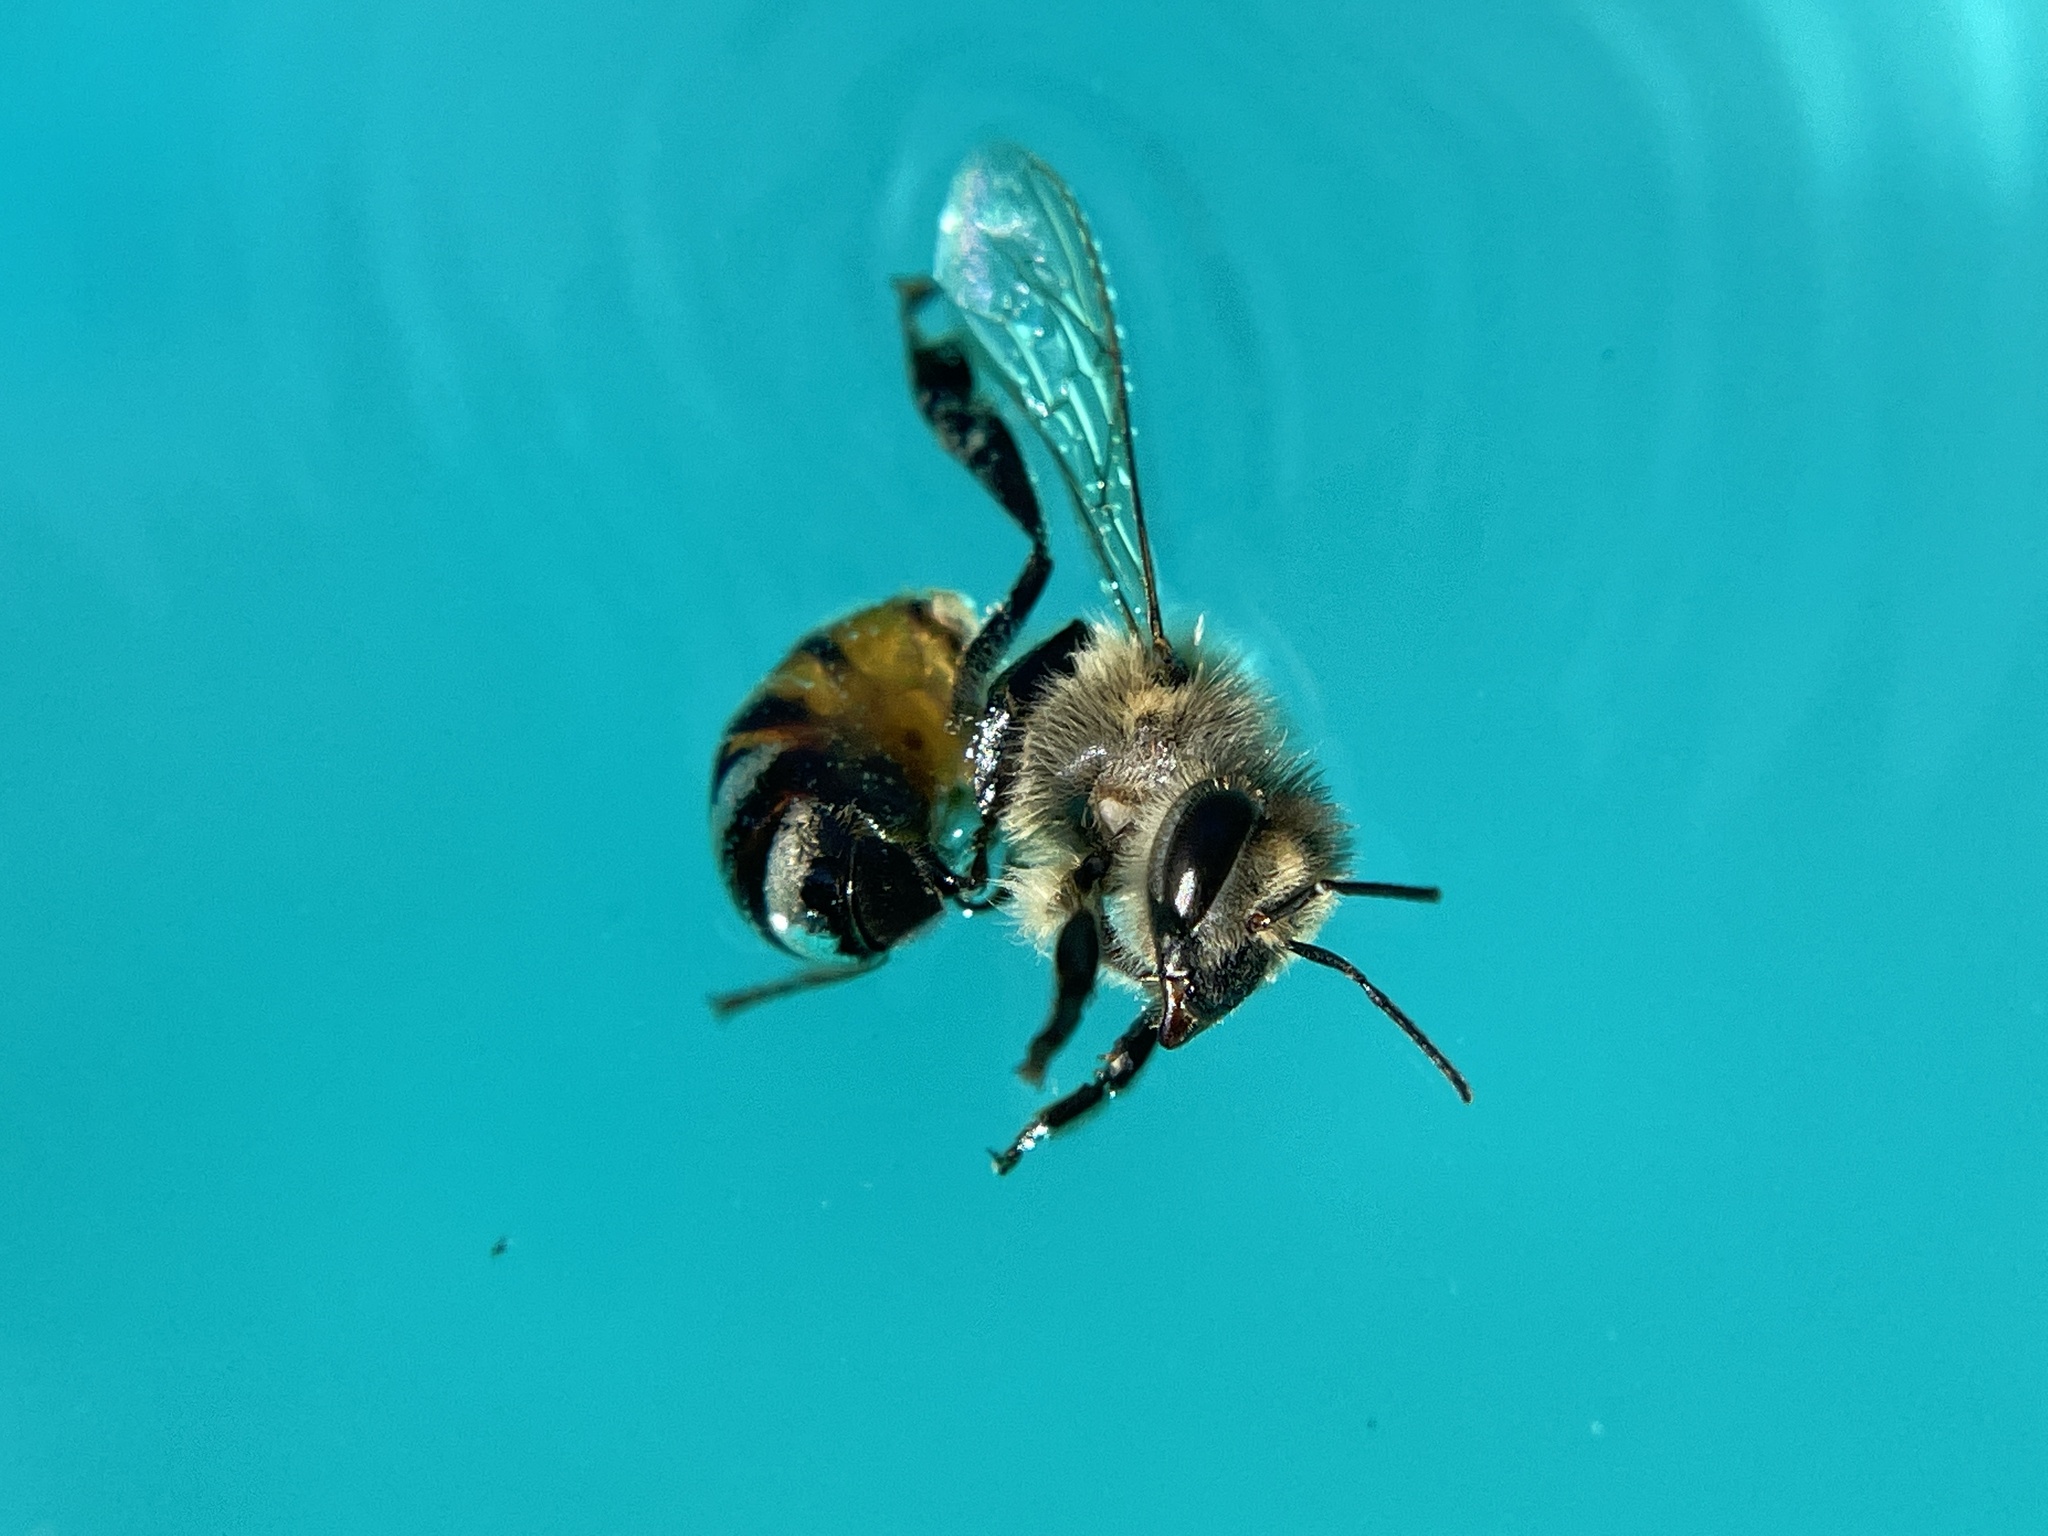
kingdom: Animalia
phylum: Arthropoda
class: Insecta
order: Hymenoptera
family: Apidae
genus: Apis
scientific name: Apis mellifera
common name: Honey bee
